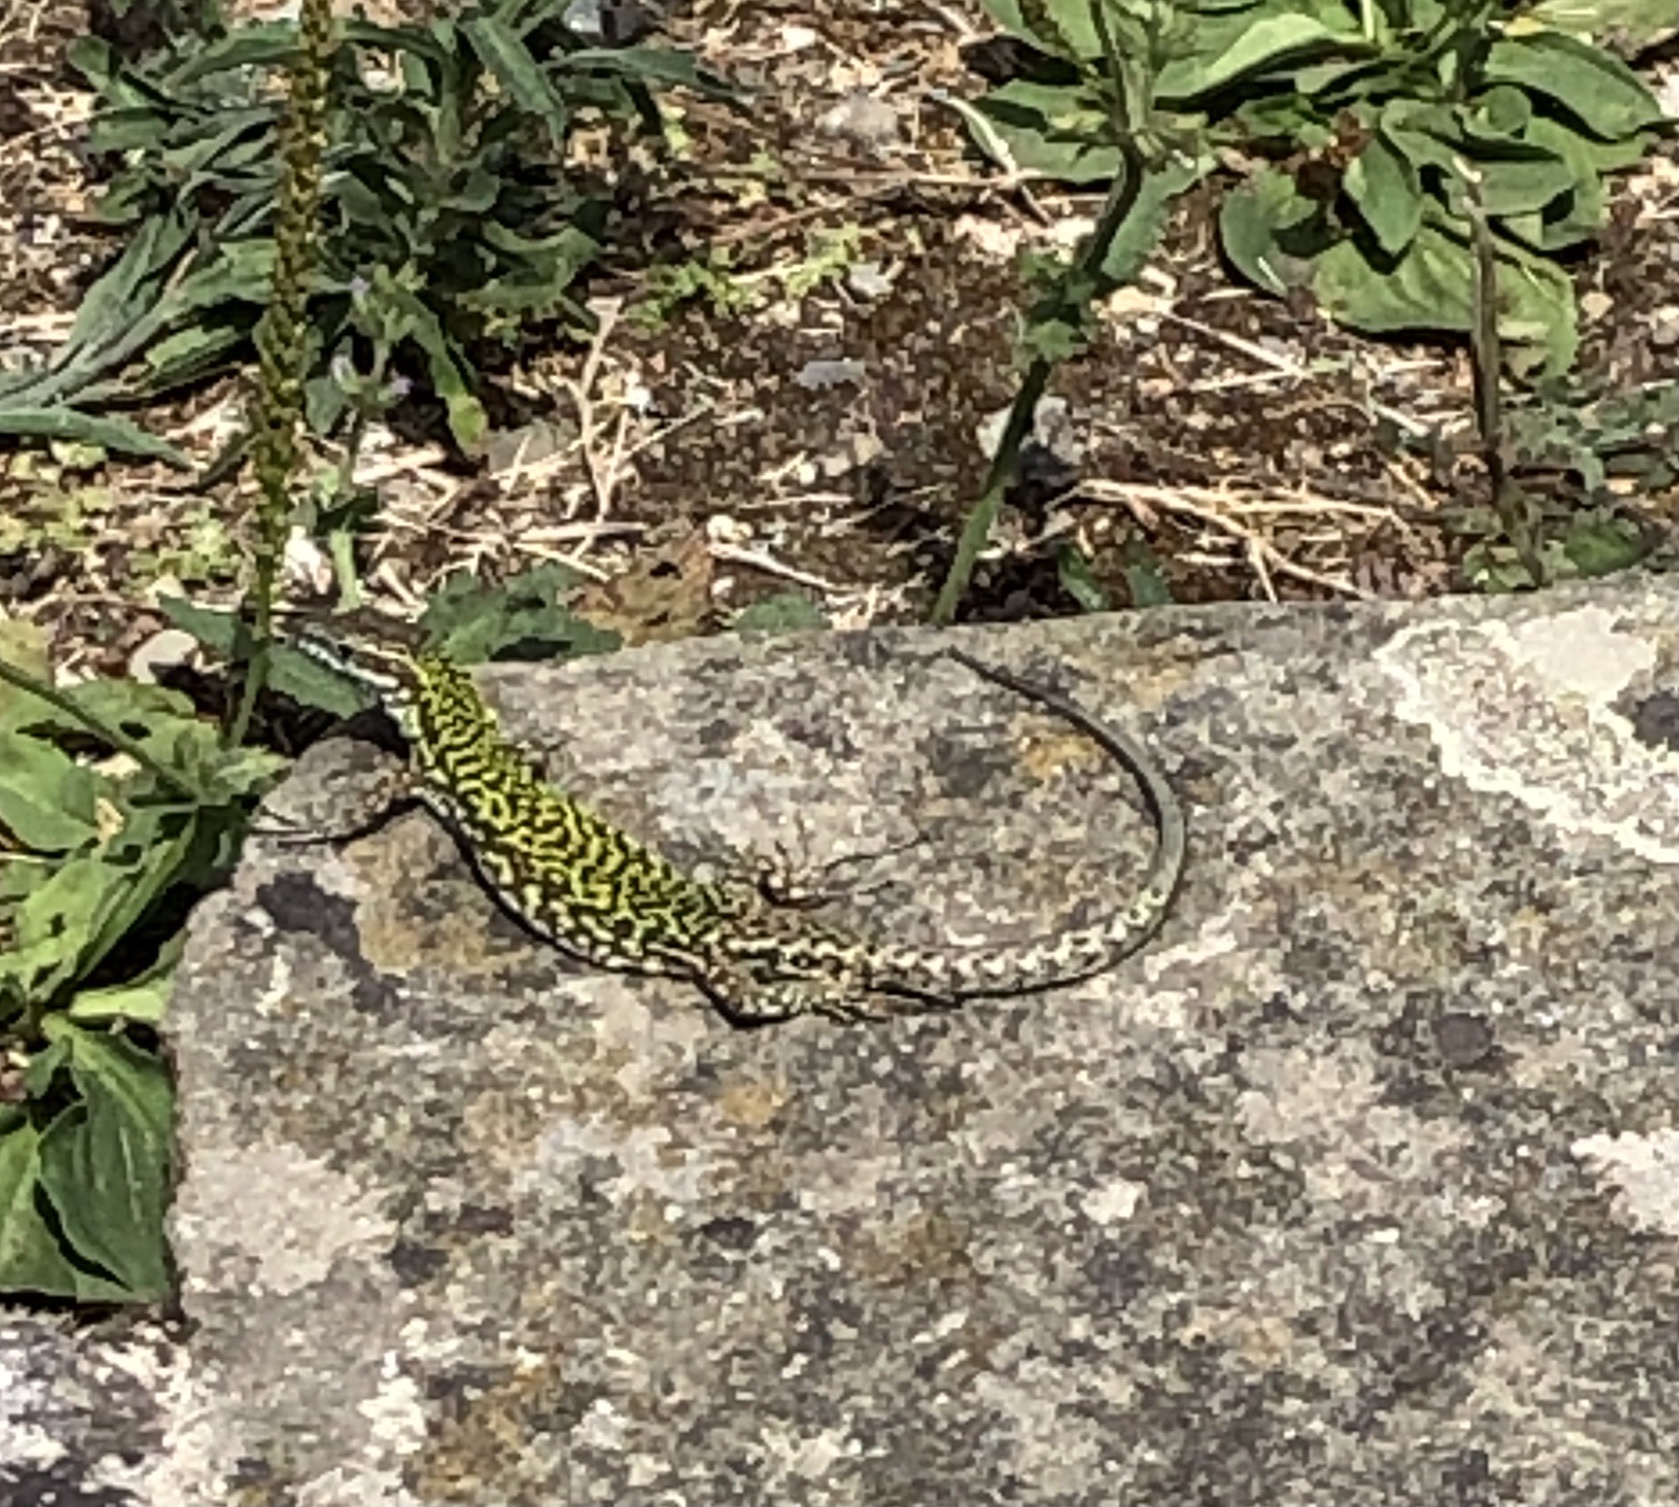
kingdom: Animalia
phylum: Chordata
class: Squamata
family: Lacertidae
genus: Podarcis
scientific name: Podarcis muralis
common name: Common wall lizard
